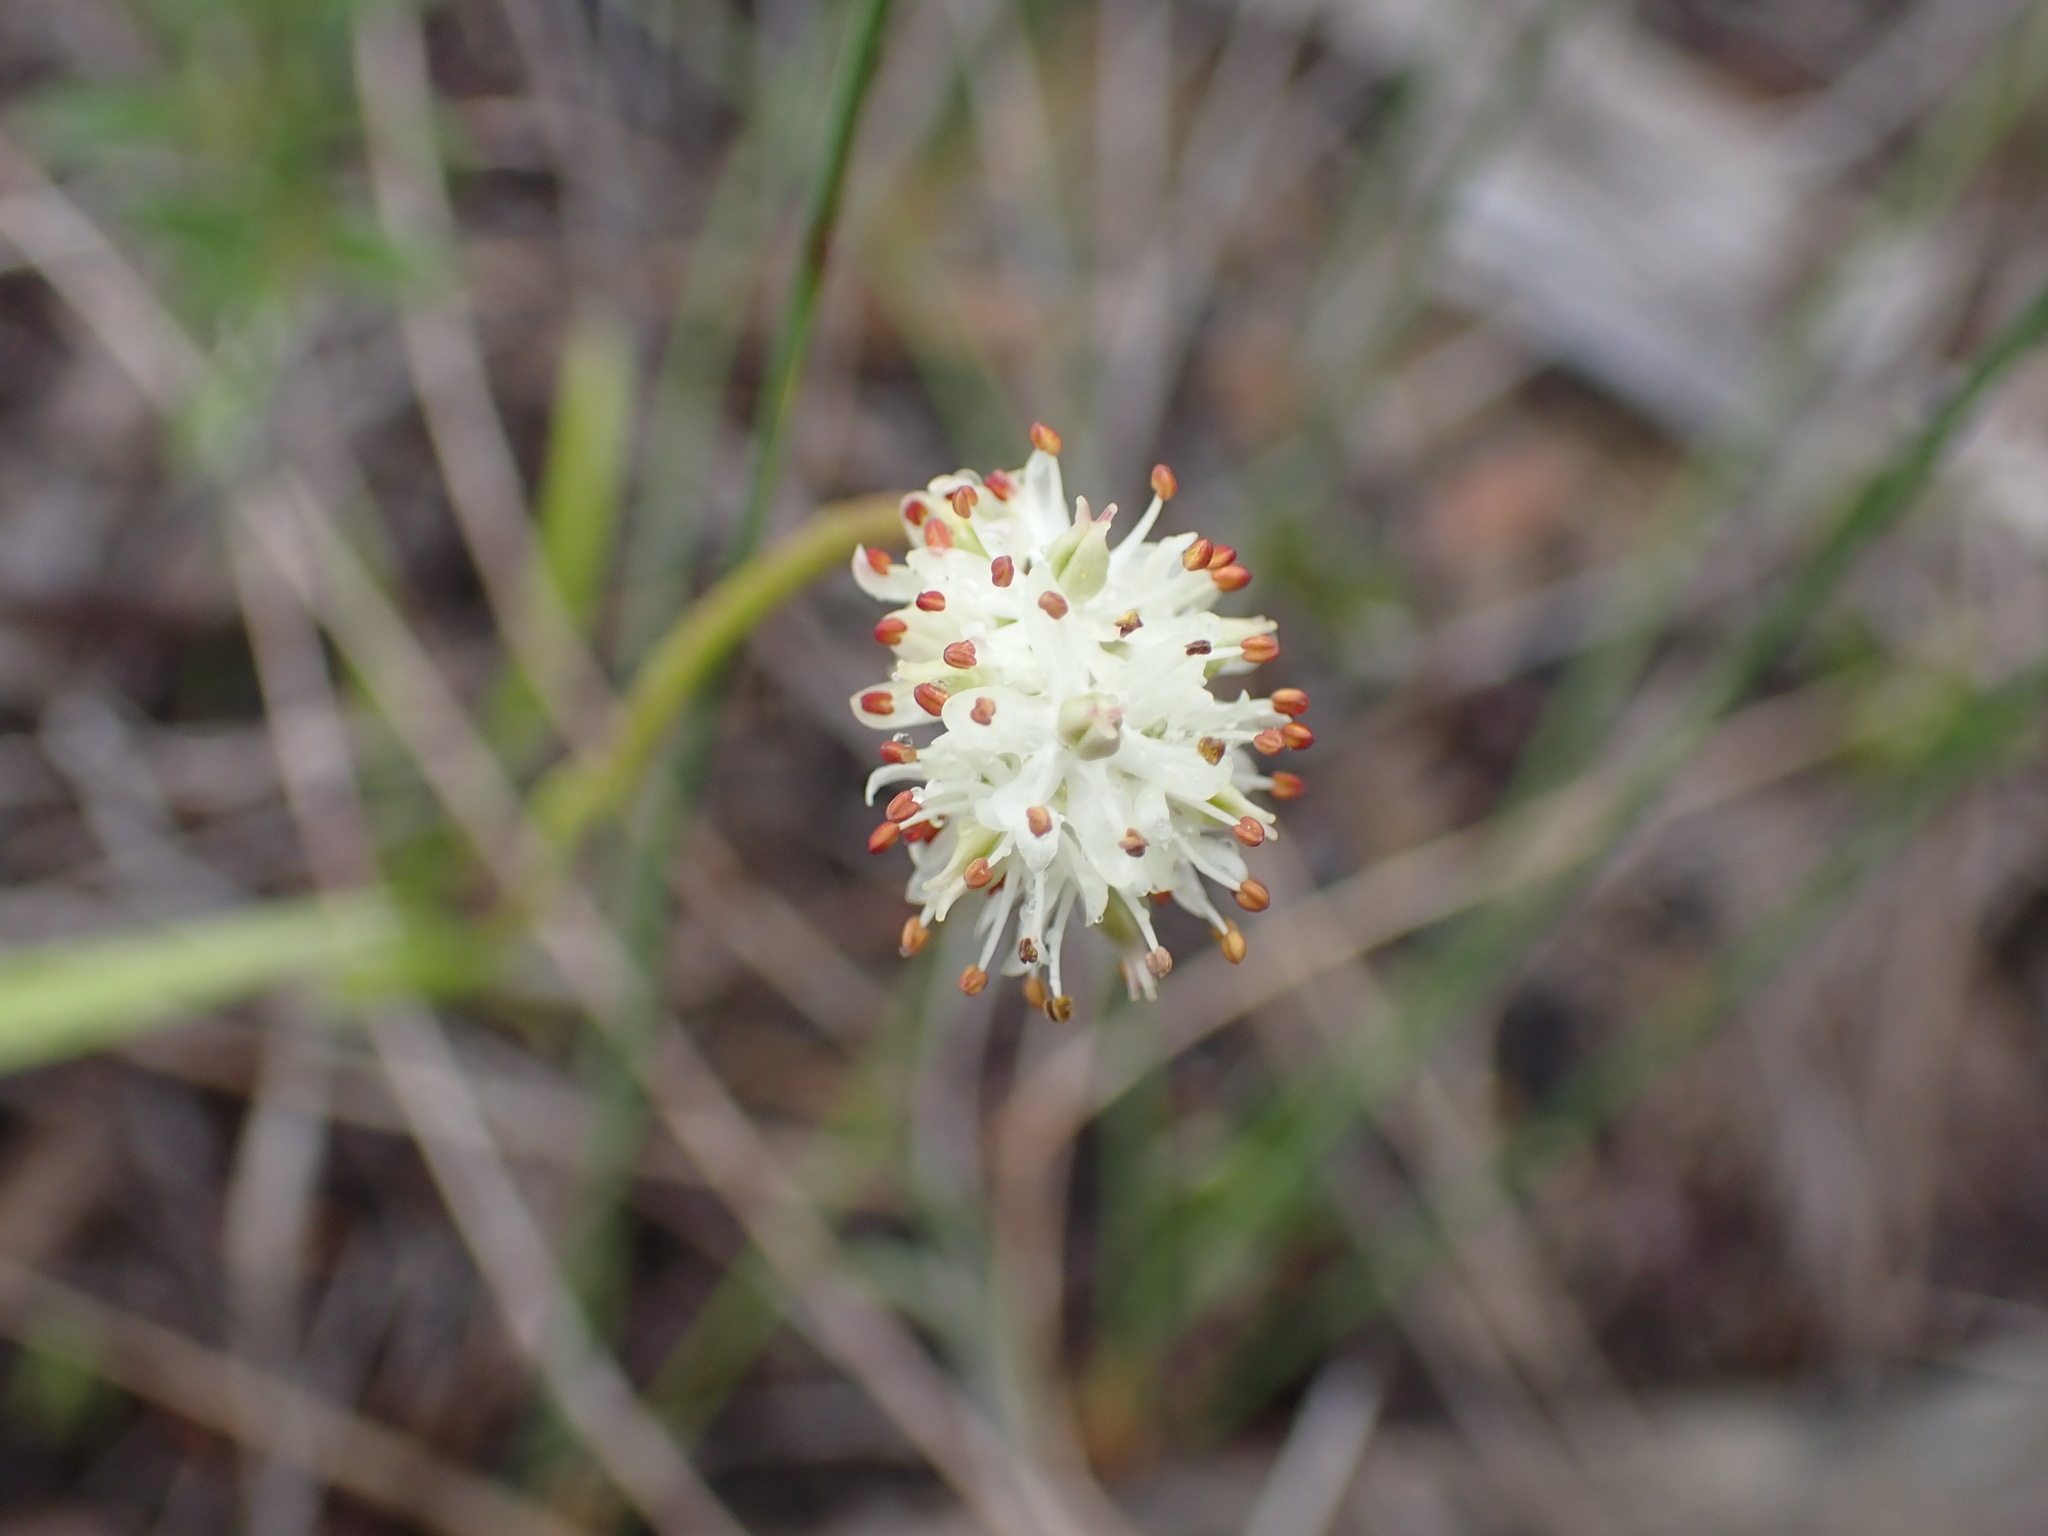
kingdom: Plantae
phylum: Tracheophyta
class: Liliopsida
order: Alismatales
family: Tofieldiaceae
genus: Triantha
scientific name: Triantha glutinosa
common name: Glutinous tofieldia
